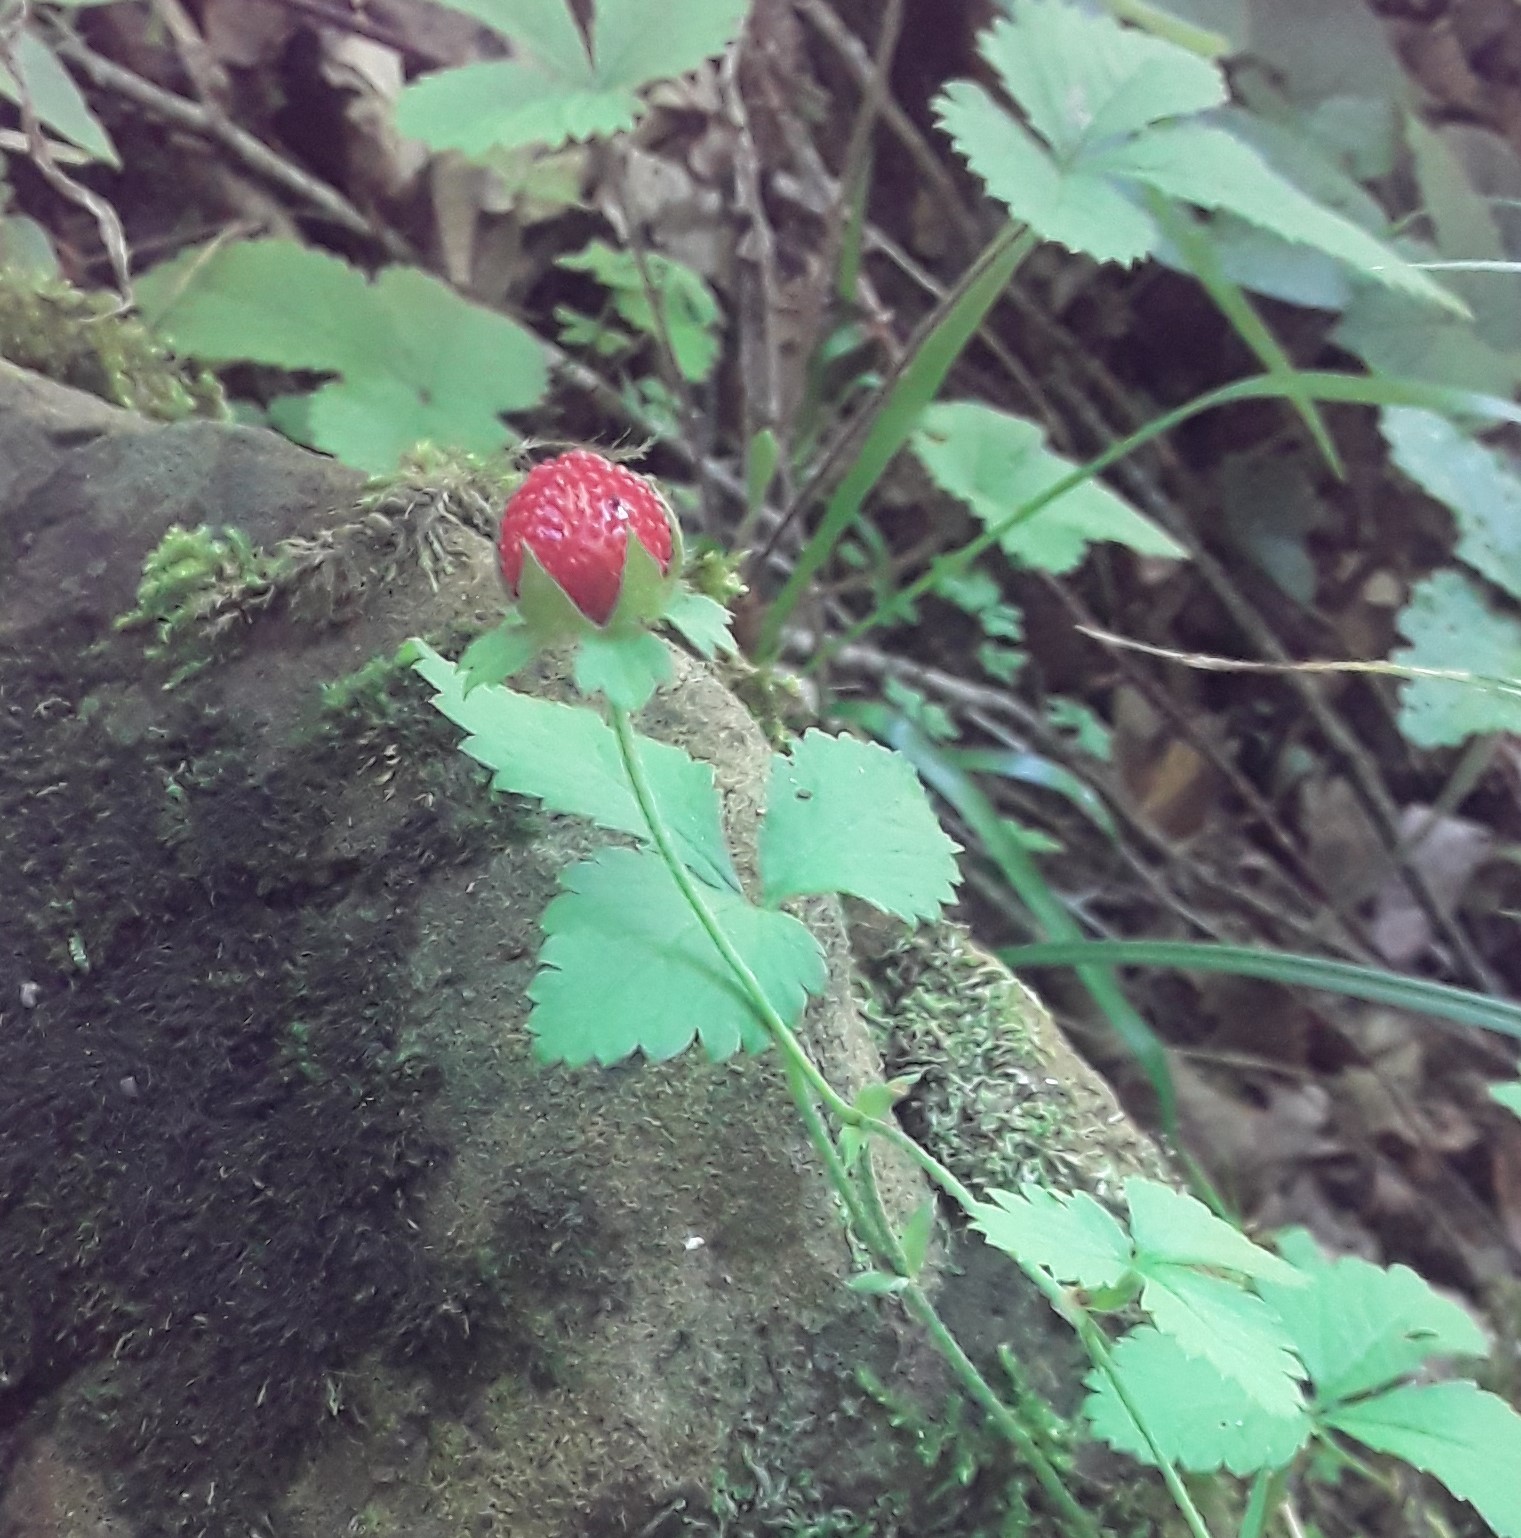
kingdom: Plantae
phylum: Tracheophyta
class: Magnoliopsida
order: Rosales
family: Rosaceae
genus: Potentilla
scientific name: Potentilla indica
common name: Yellow-flowered strawberry
